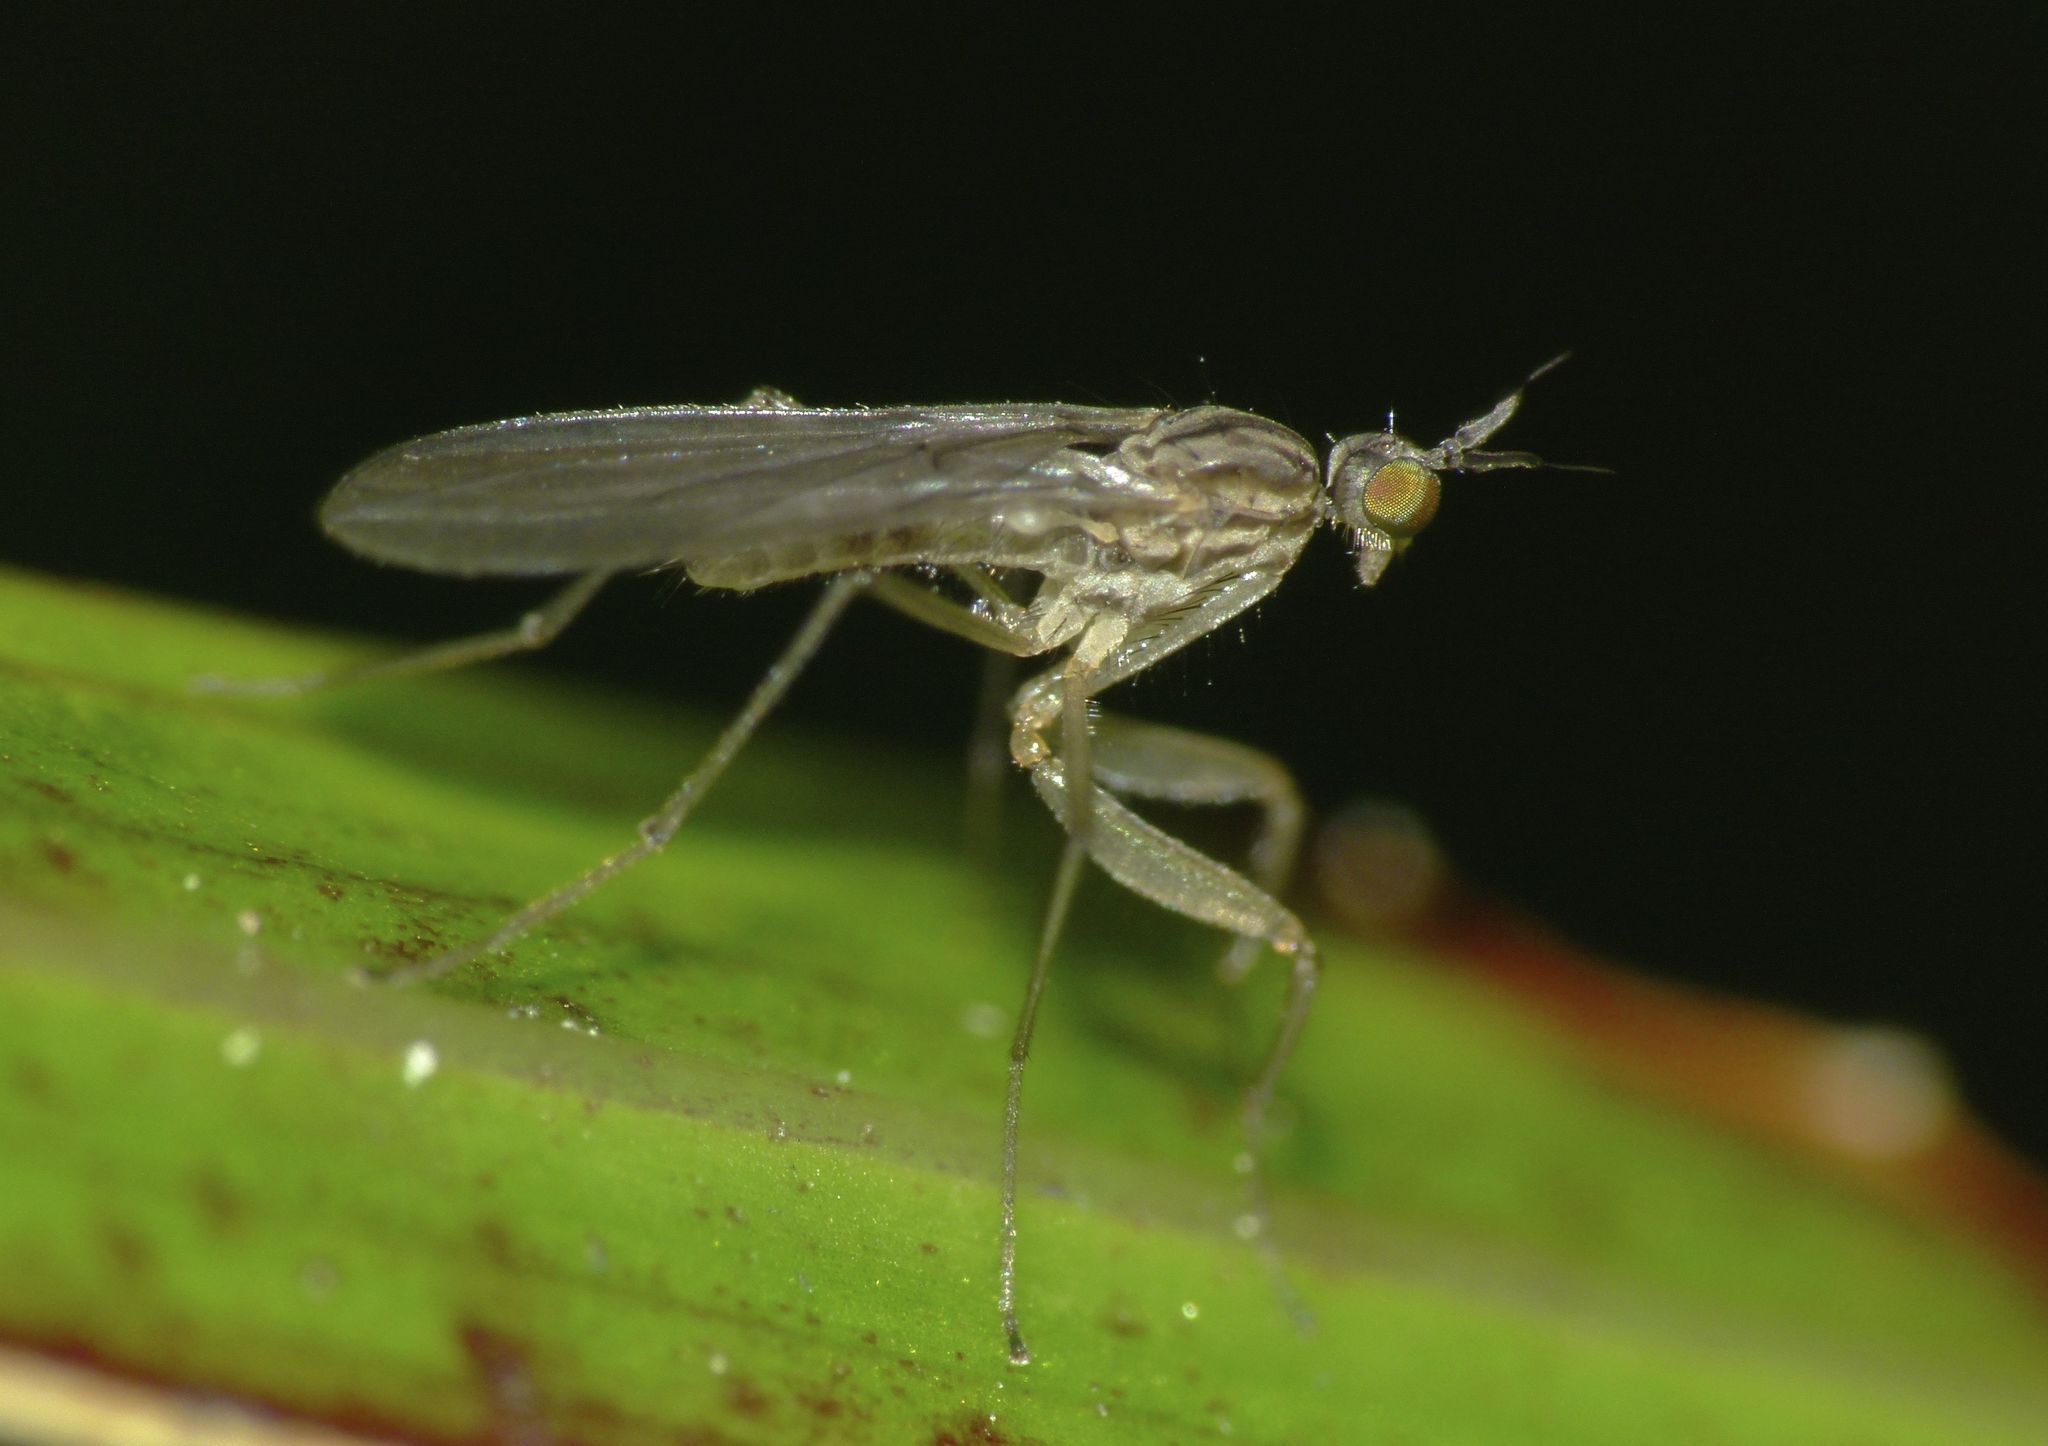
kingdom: Animalia
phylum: Arthropoda
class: Insecta
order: Diptera
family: Empididae
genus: Chelipoda
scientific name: Chelipoda abditus
